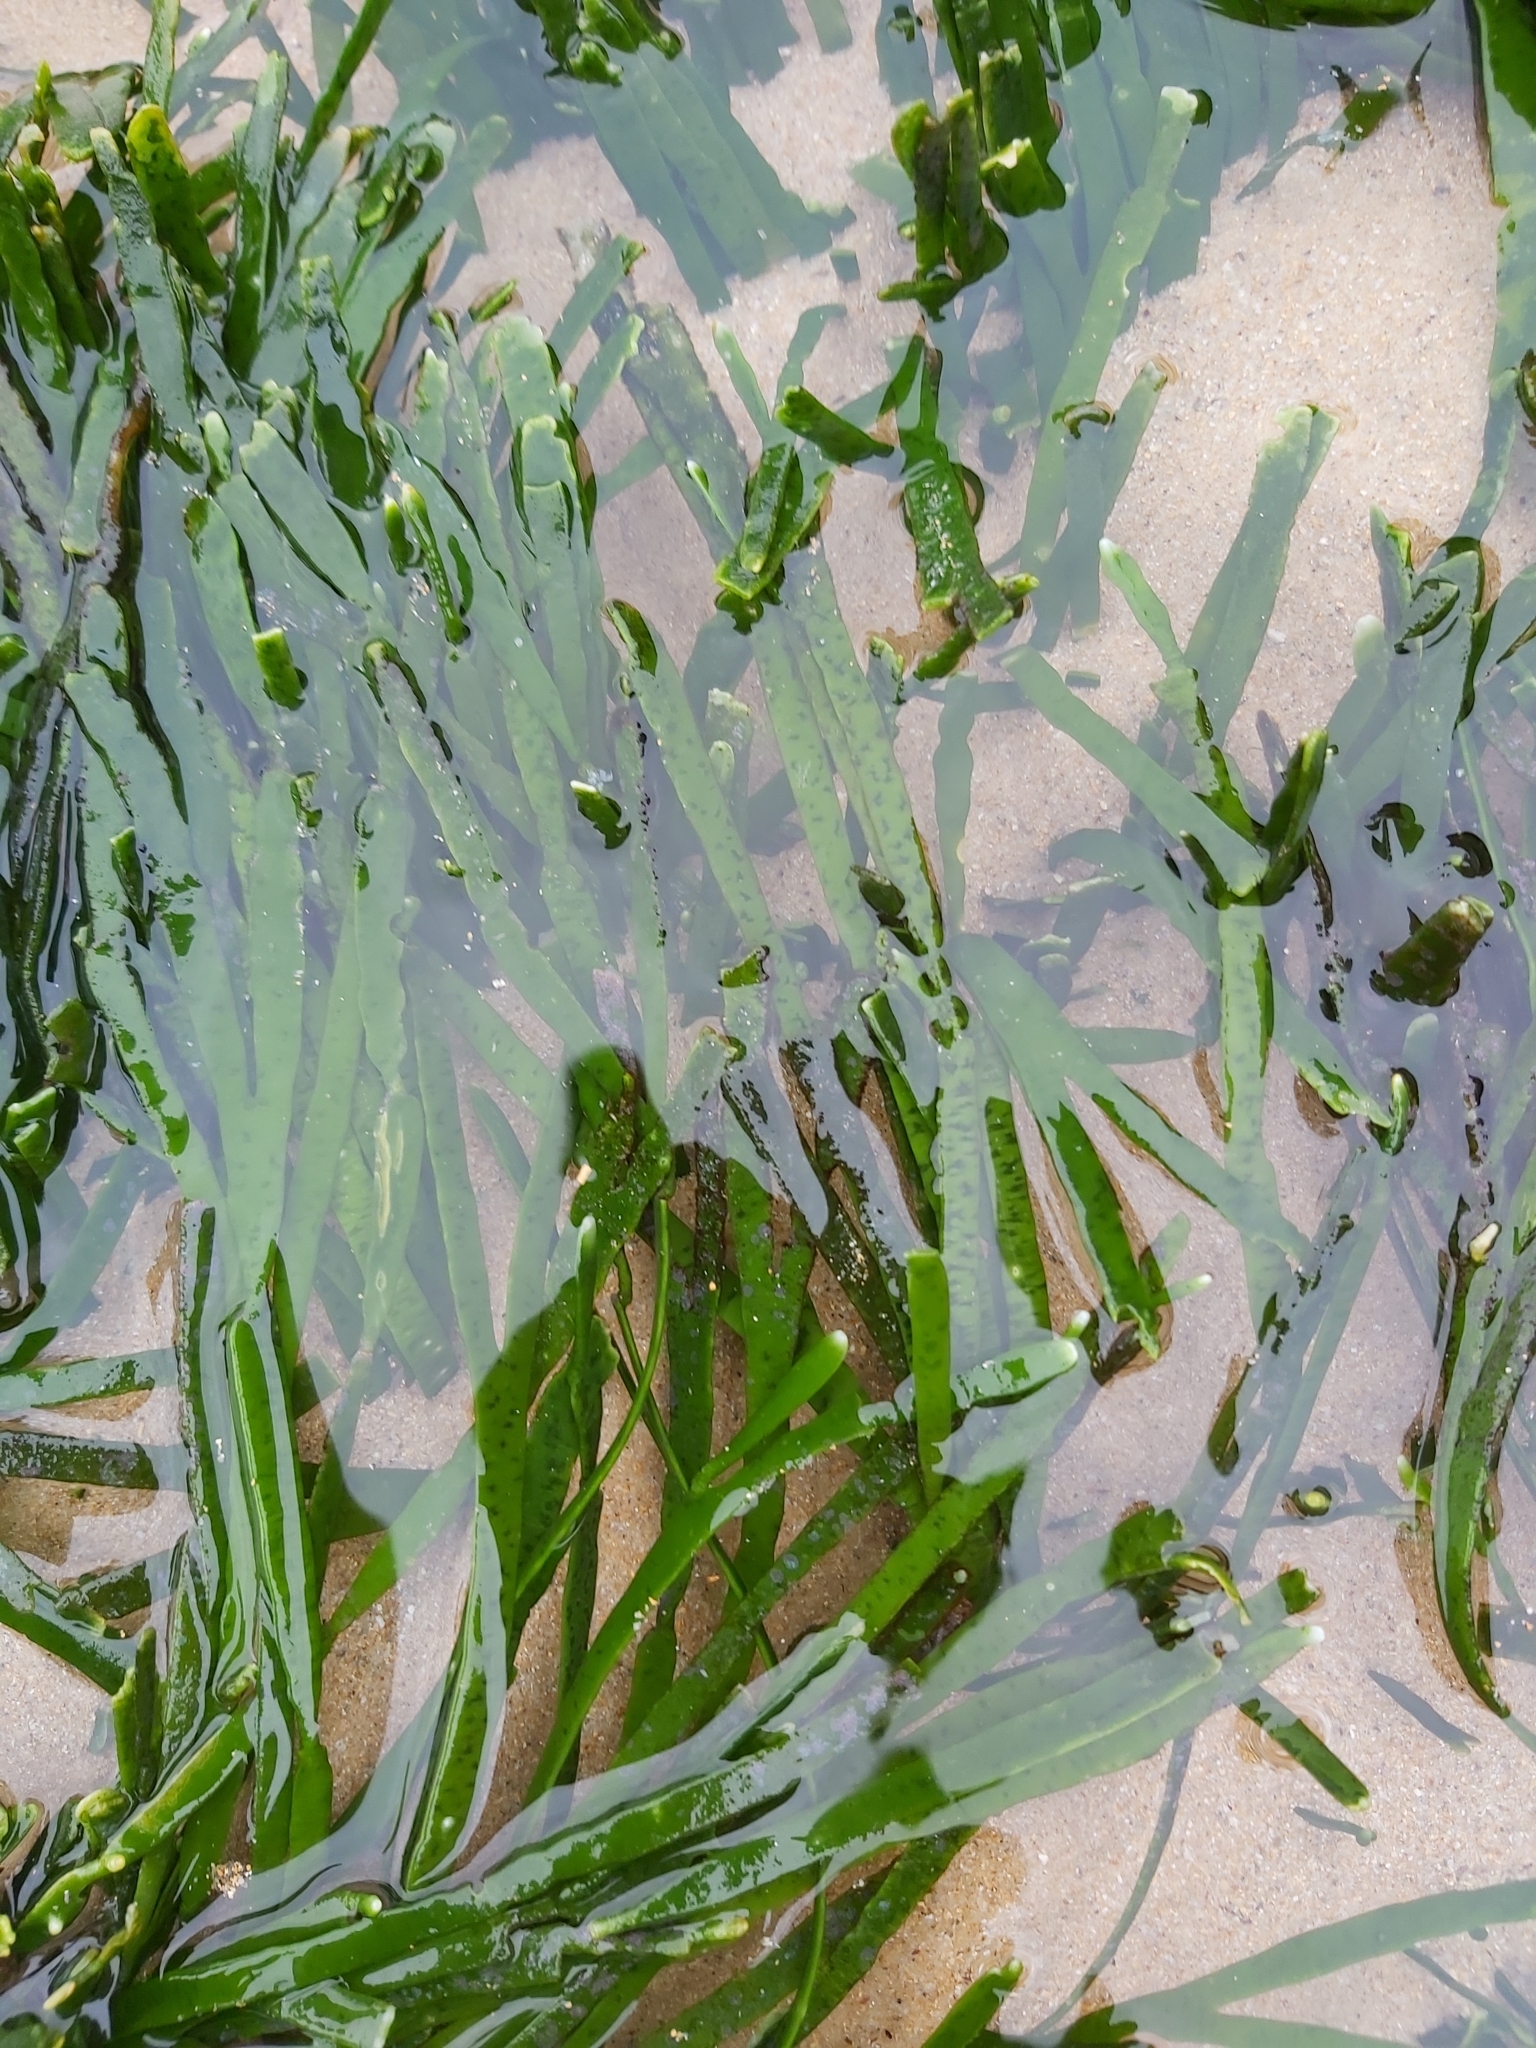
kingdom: Plantae
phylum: Chlorophyta
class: Ulvophyceae
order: Bryopsidales
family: Caulerpaceae
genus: Caulerpa
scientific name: Caulerpa filiformis
